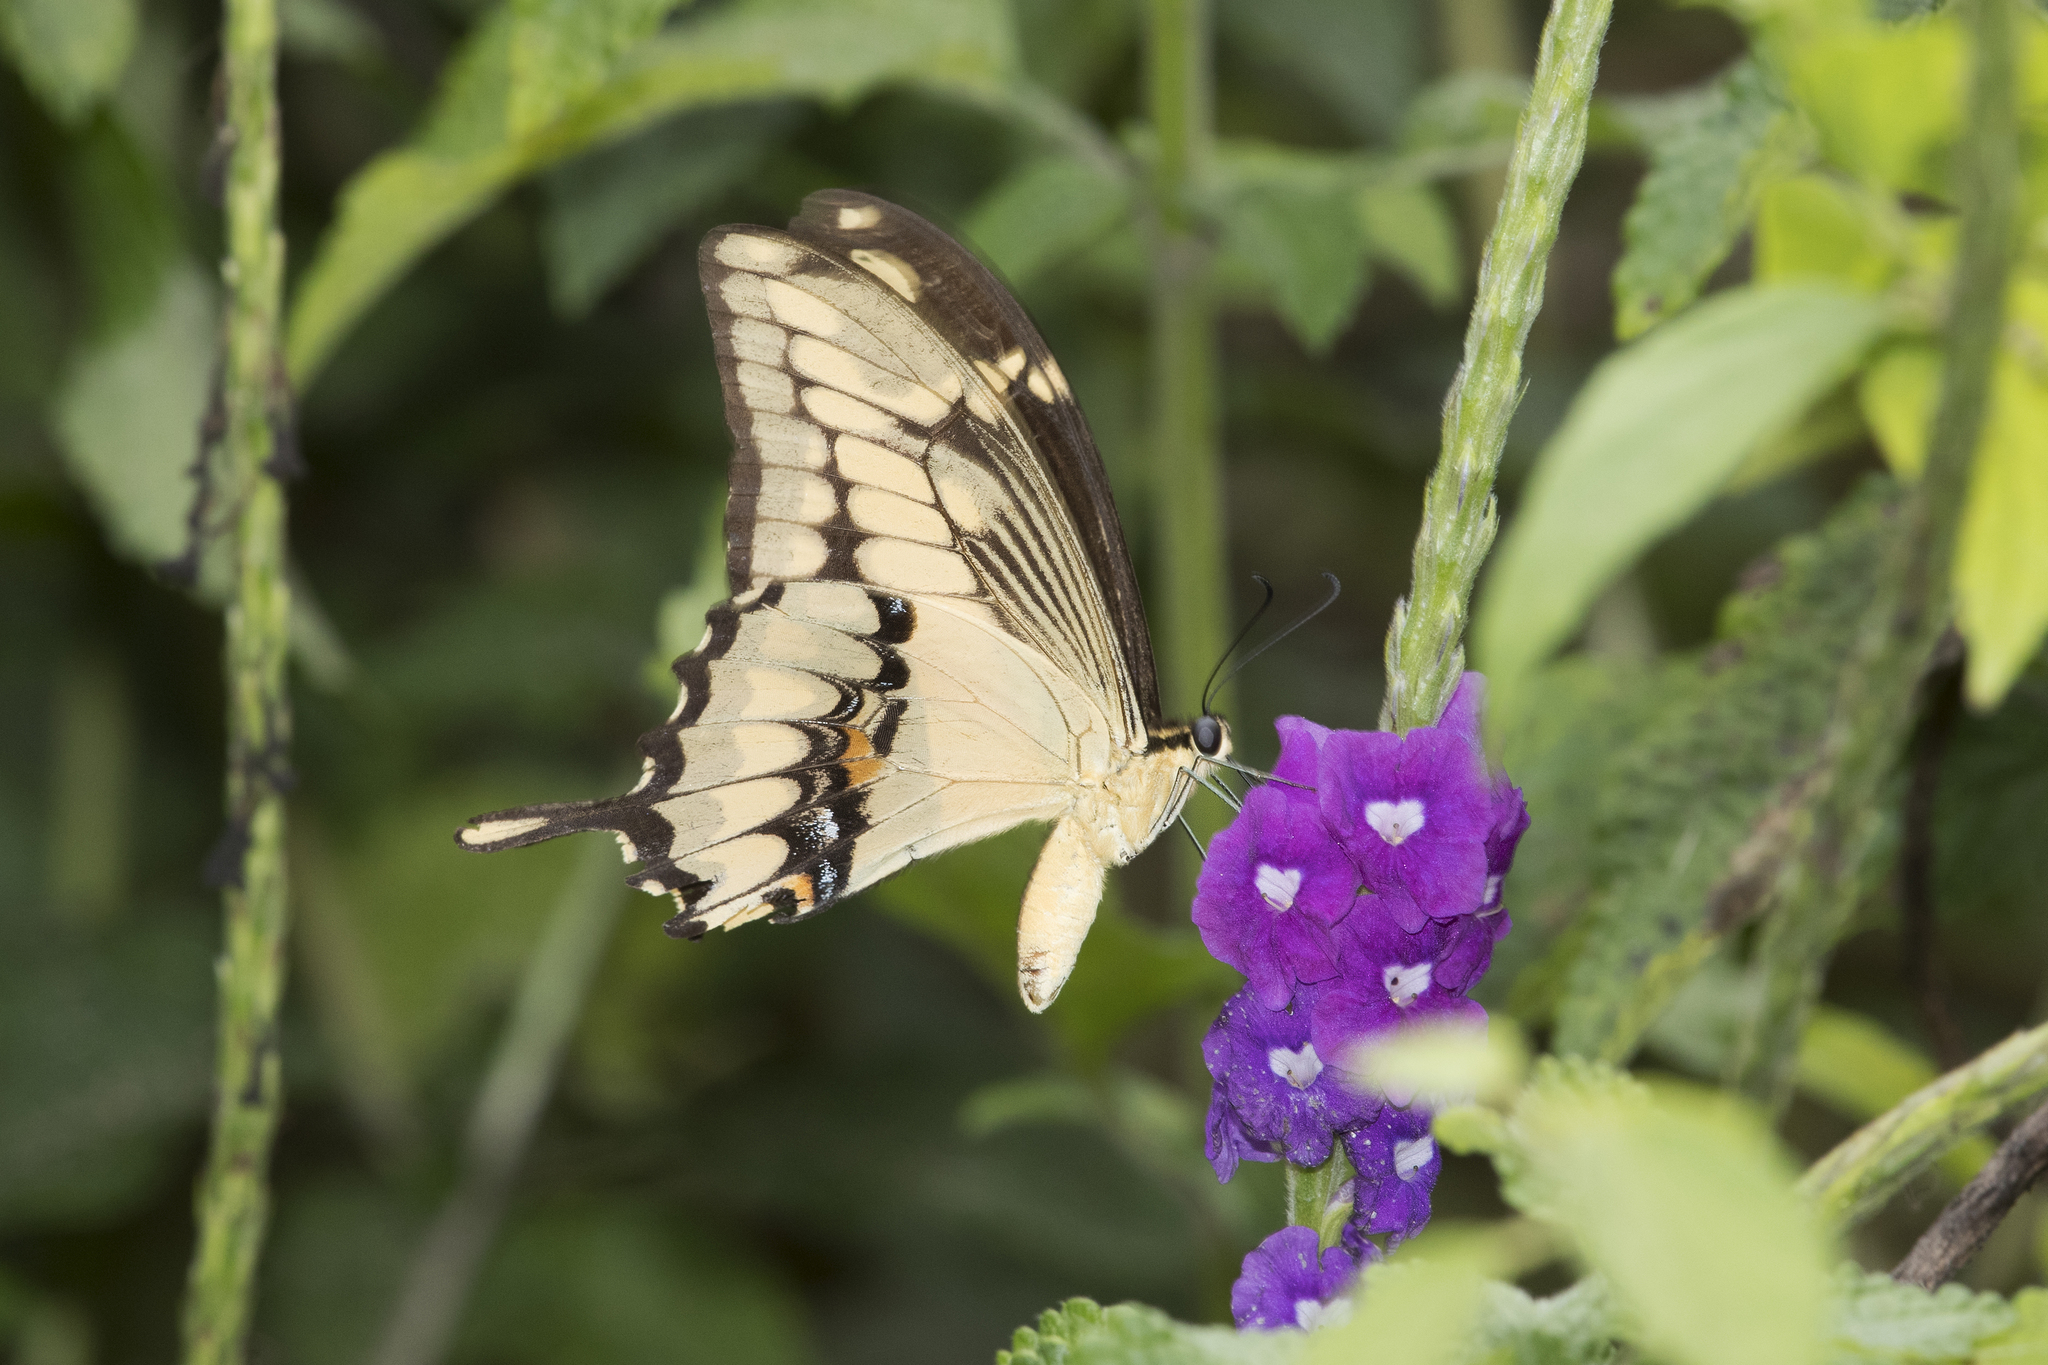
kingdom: Animalia
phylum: Arthropoda
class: Insecta
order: Lepidoptera
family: Papilionidae
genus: Papilio
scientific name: Papilio thoas
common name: King swallowtail
